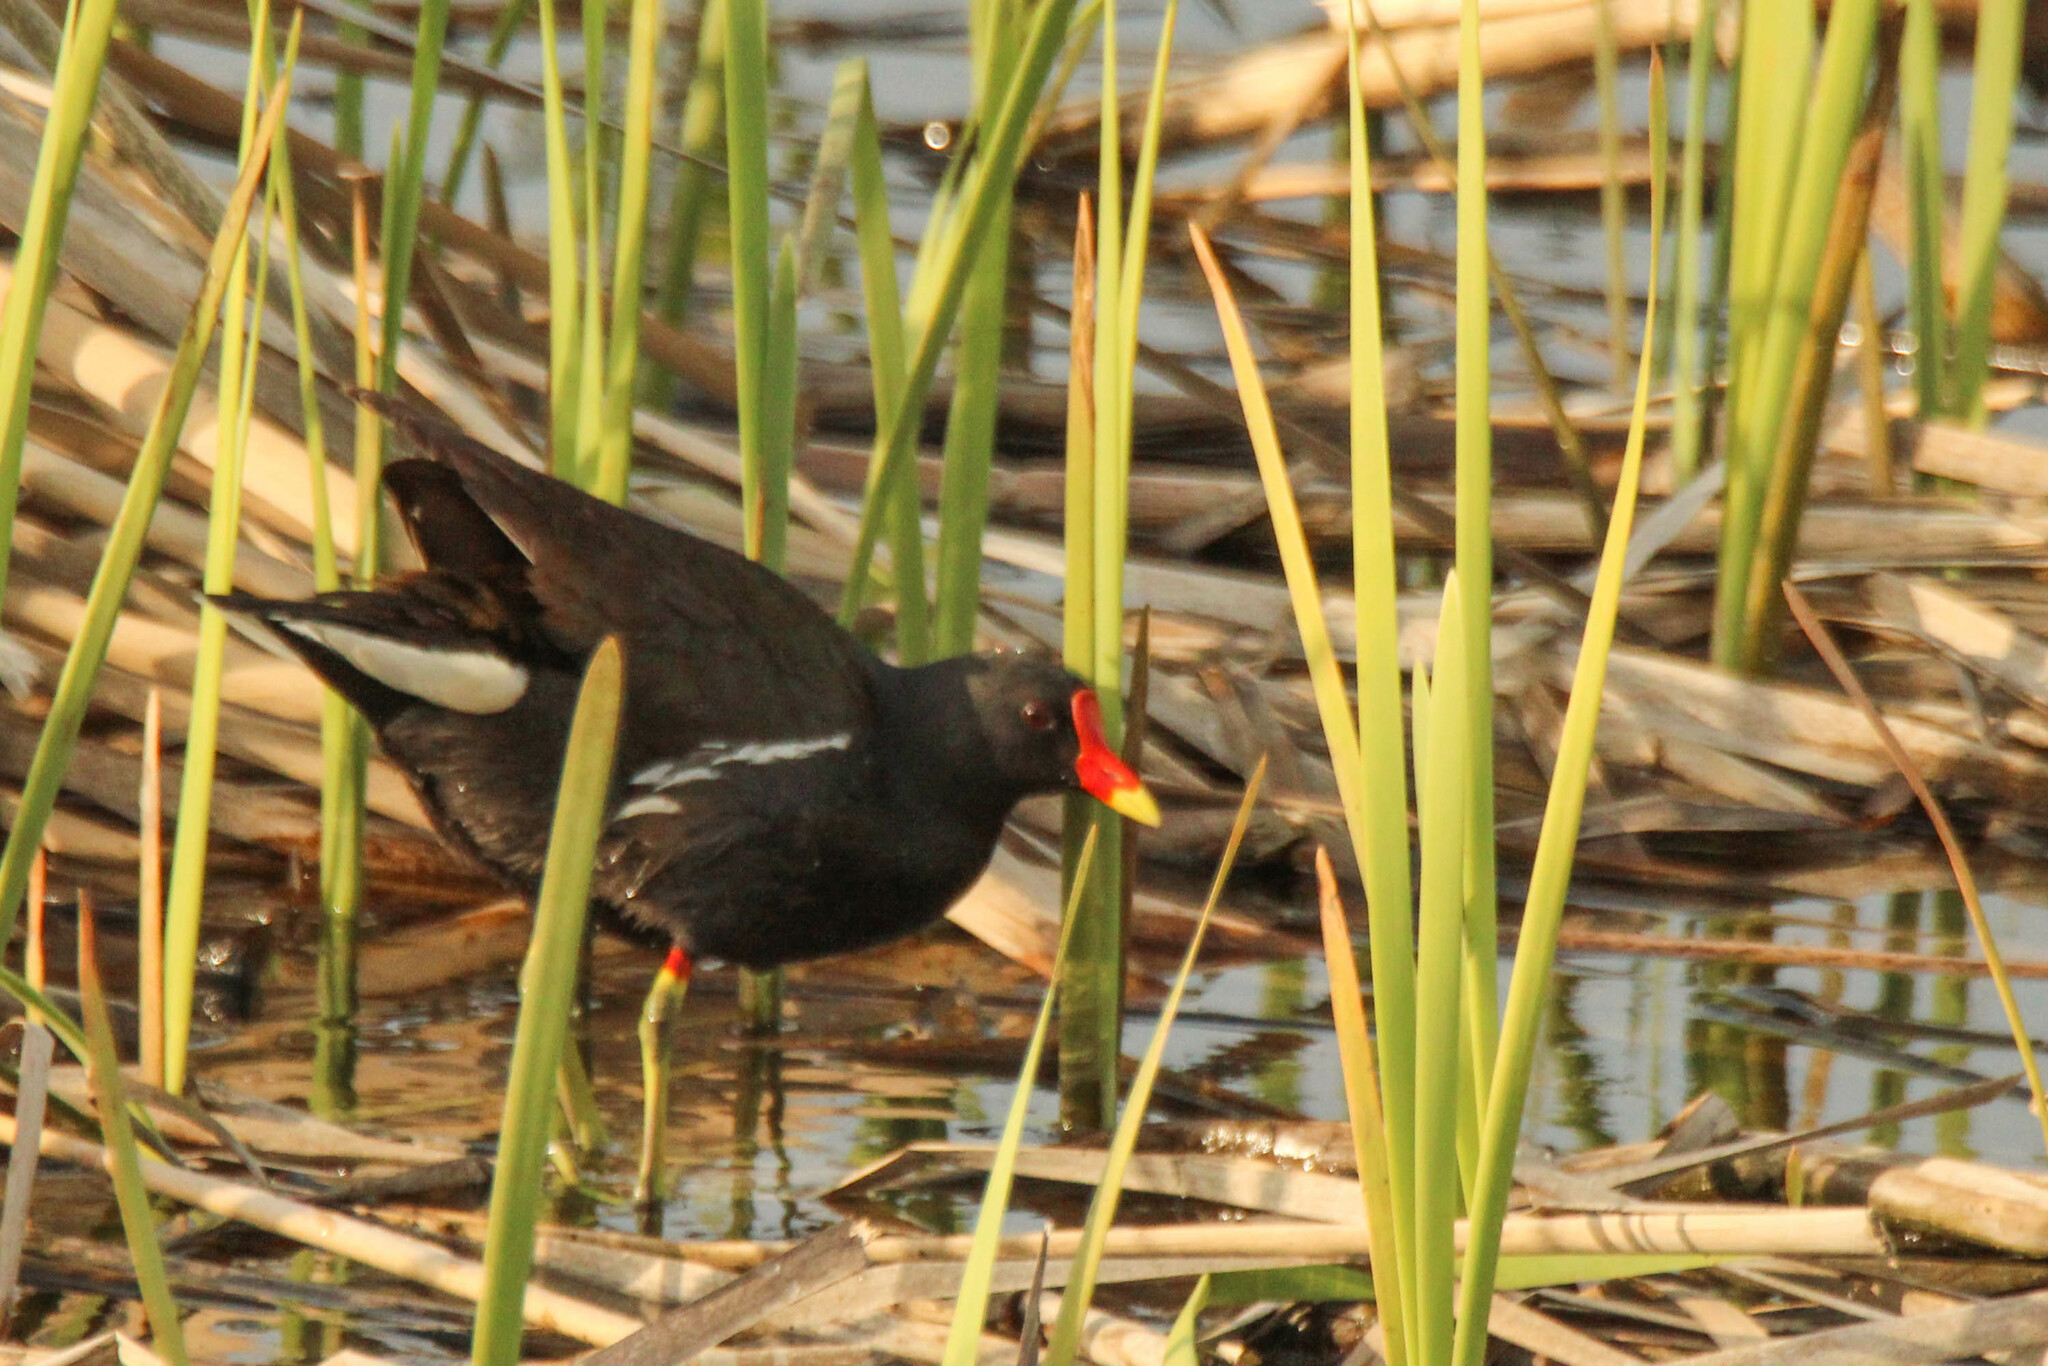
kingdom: Animalia
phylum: Chordata
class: Aves
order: Gruiformes
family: Rallidae
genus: Gallinula
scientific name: Gallinula chloropus
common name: Common moorhen
